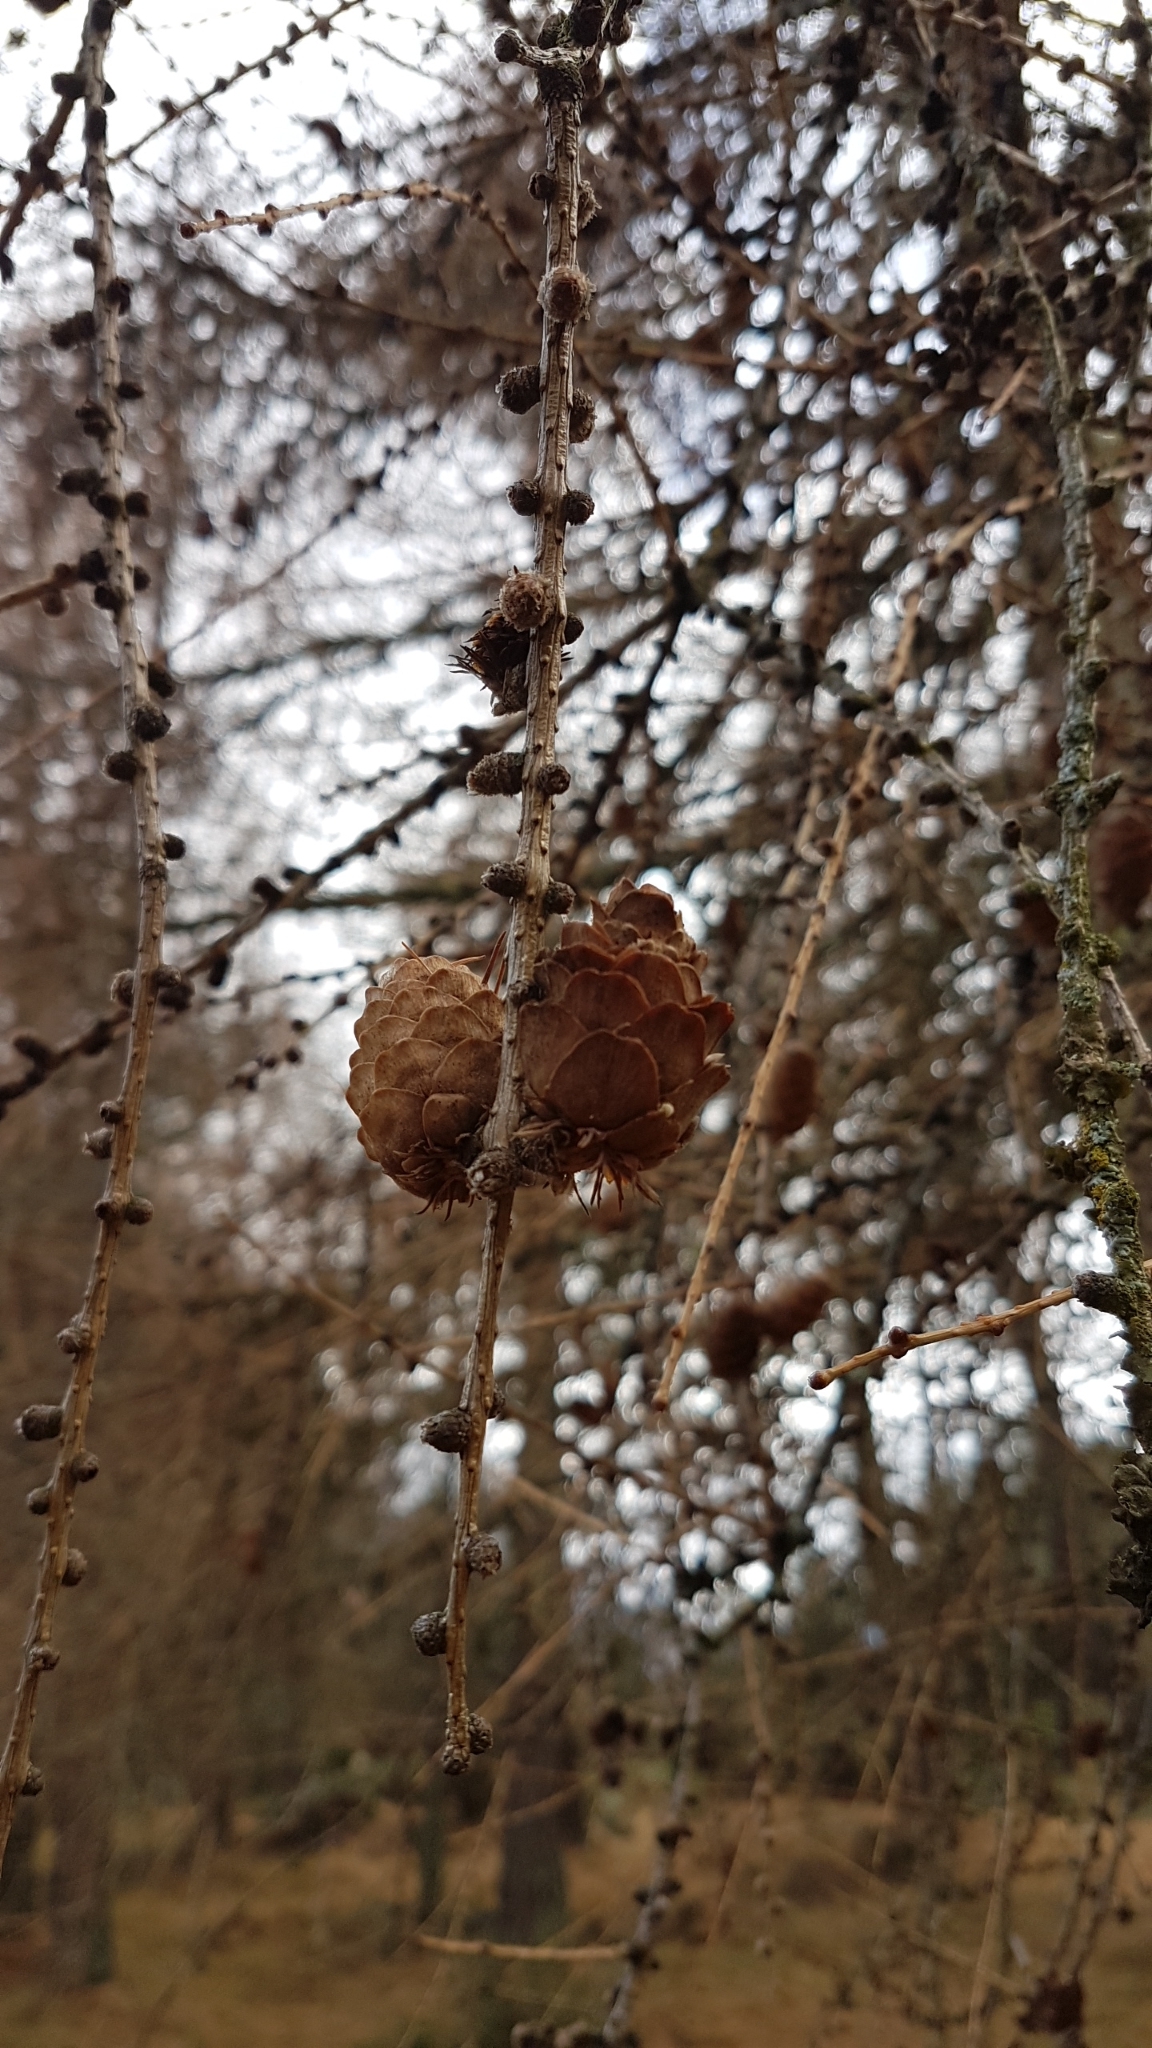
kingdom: Plantae
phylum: Tracheophyta
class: Pinopsida
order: Pinales
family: Pinaceae
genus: Larix
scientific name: Larix decidua
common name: European larch
